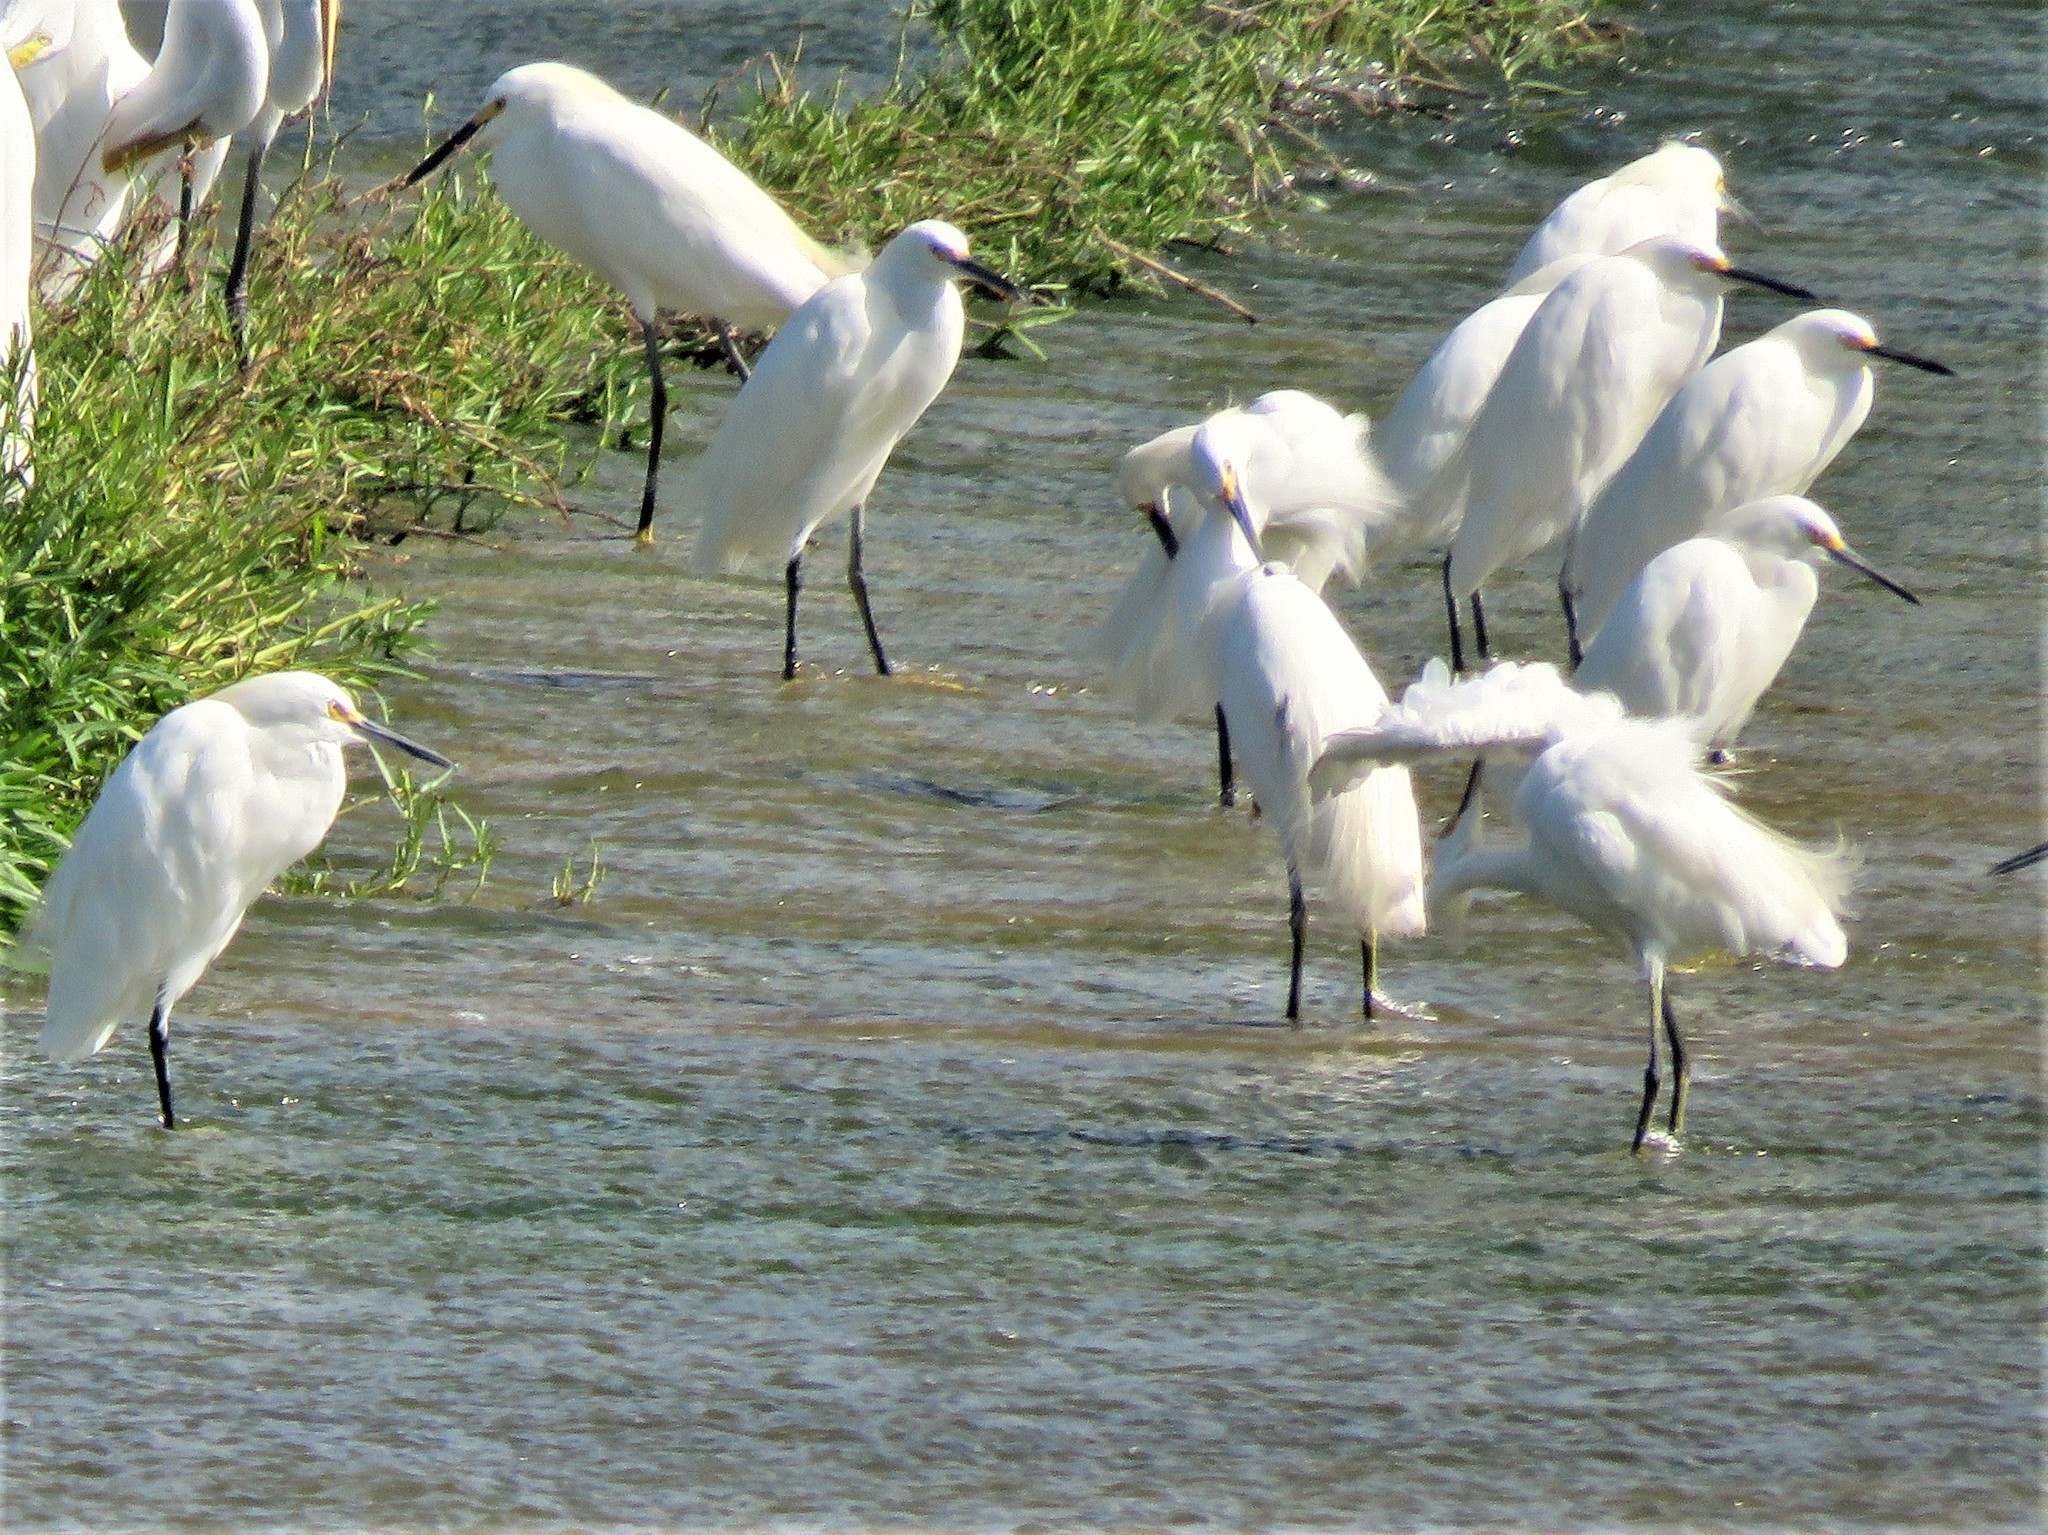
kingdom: Animalia
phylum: Chordata
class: Aves
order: Pelecaniformes
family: Ardeidae
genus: Egretta
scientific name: Egretta thula
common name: Snowy egret
